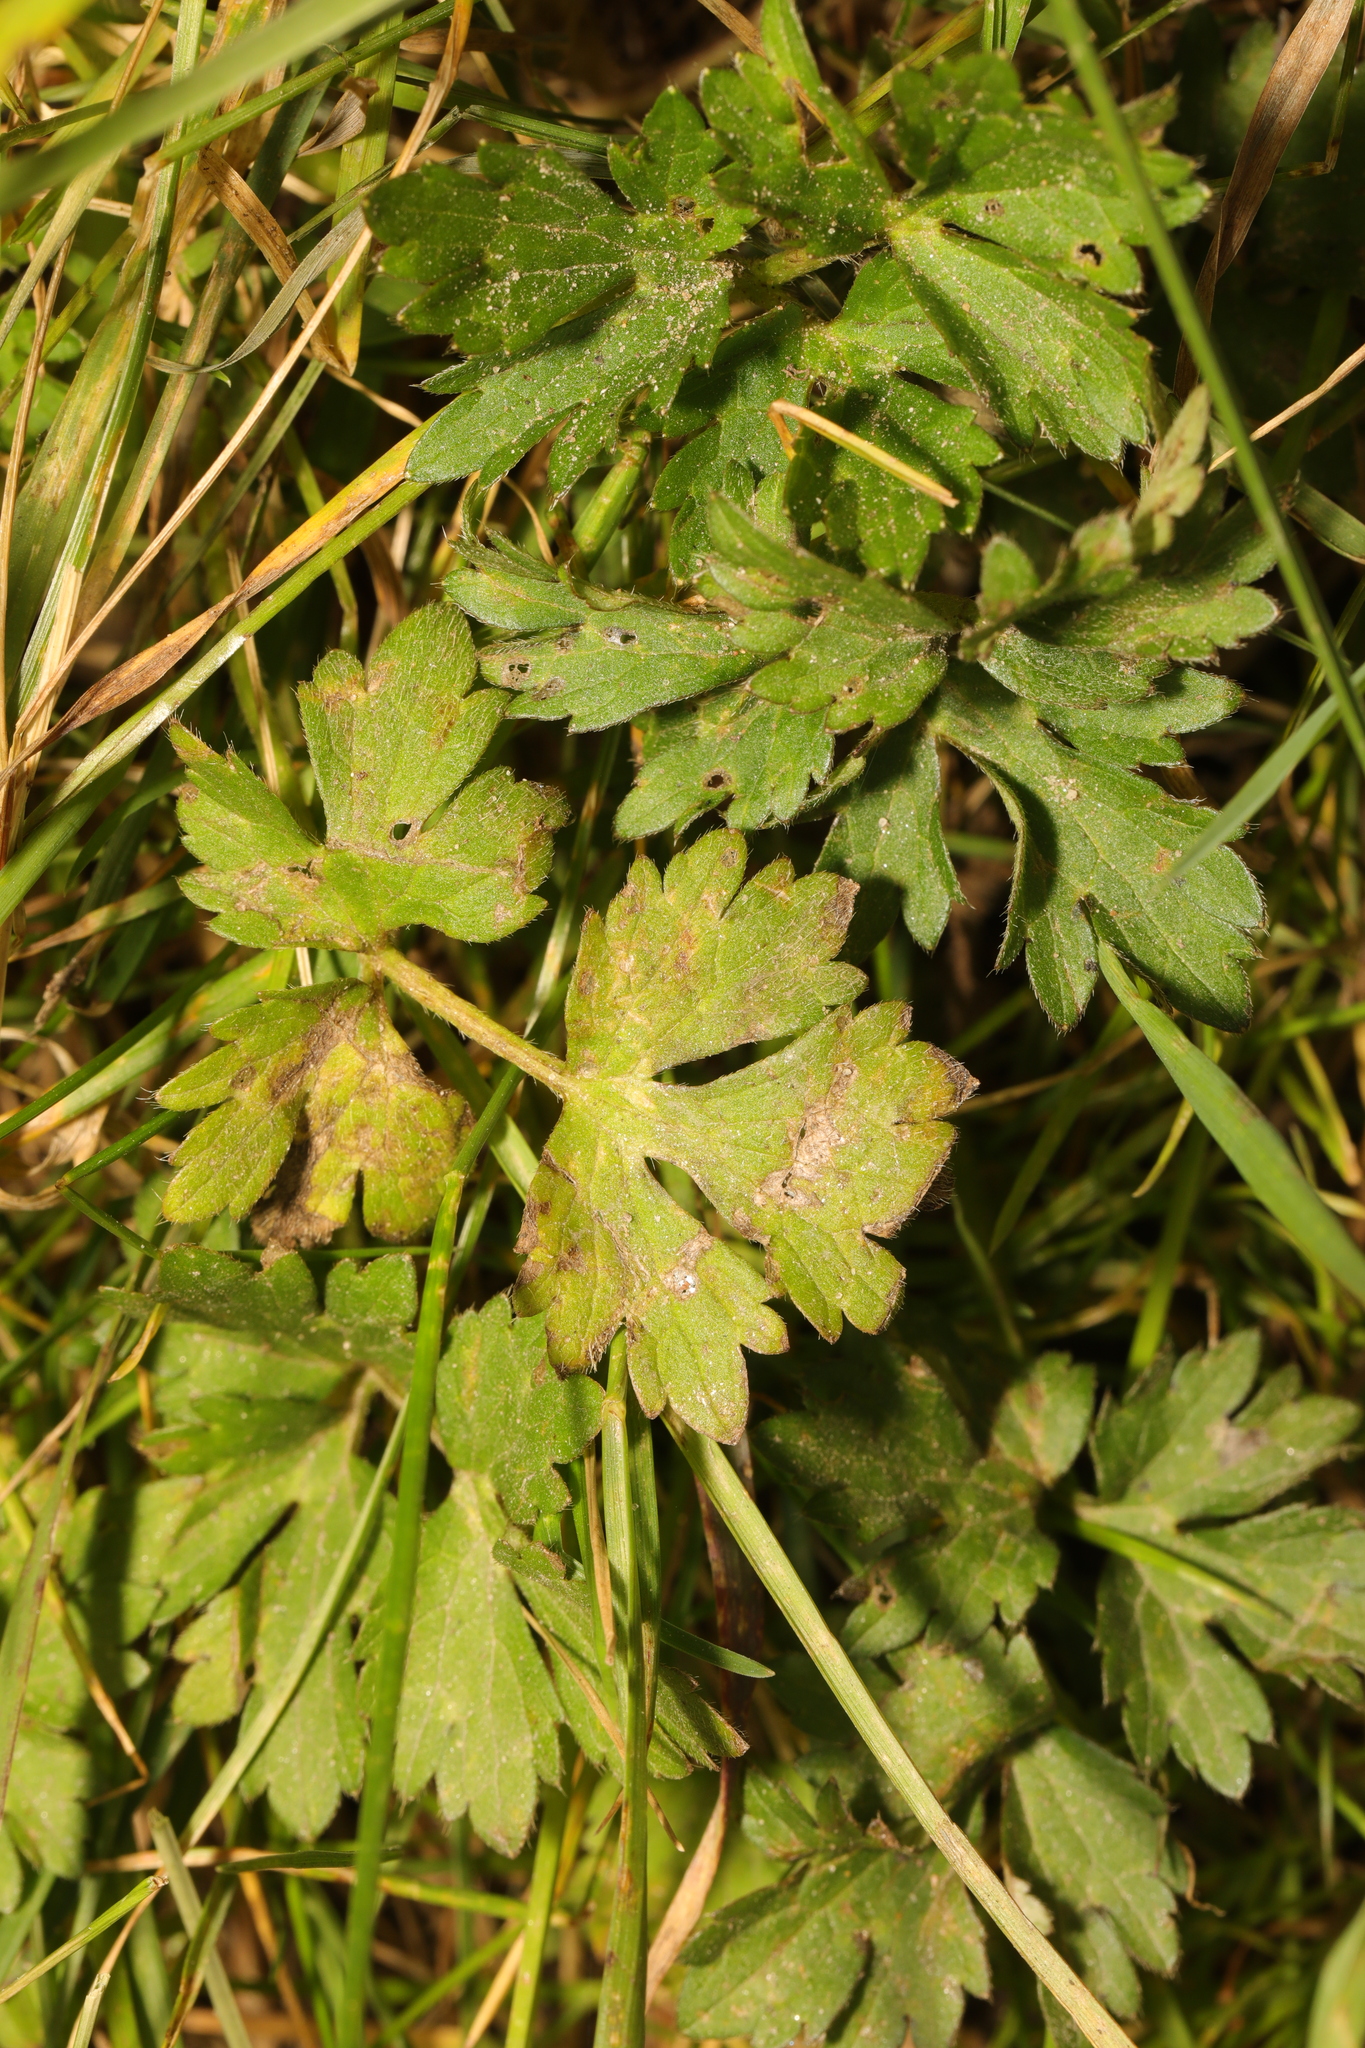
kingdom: Plantae
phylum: Tracheophyta
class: Magnoliopsida
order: Ranunculales
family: Ranunculaceae
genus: Ranunculus
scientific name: Ranunculus repens
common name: Creeping buttercup
